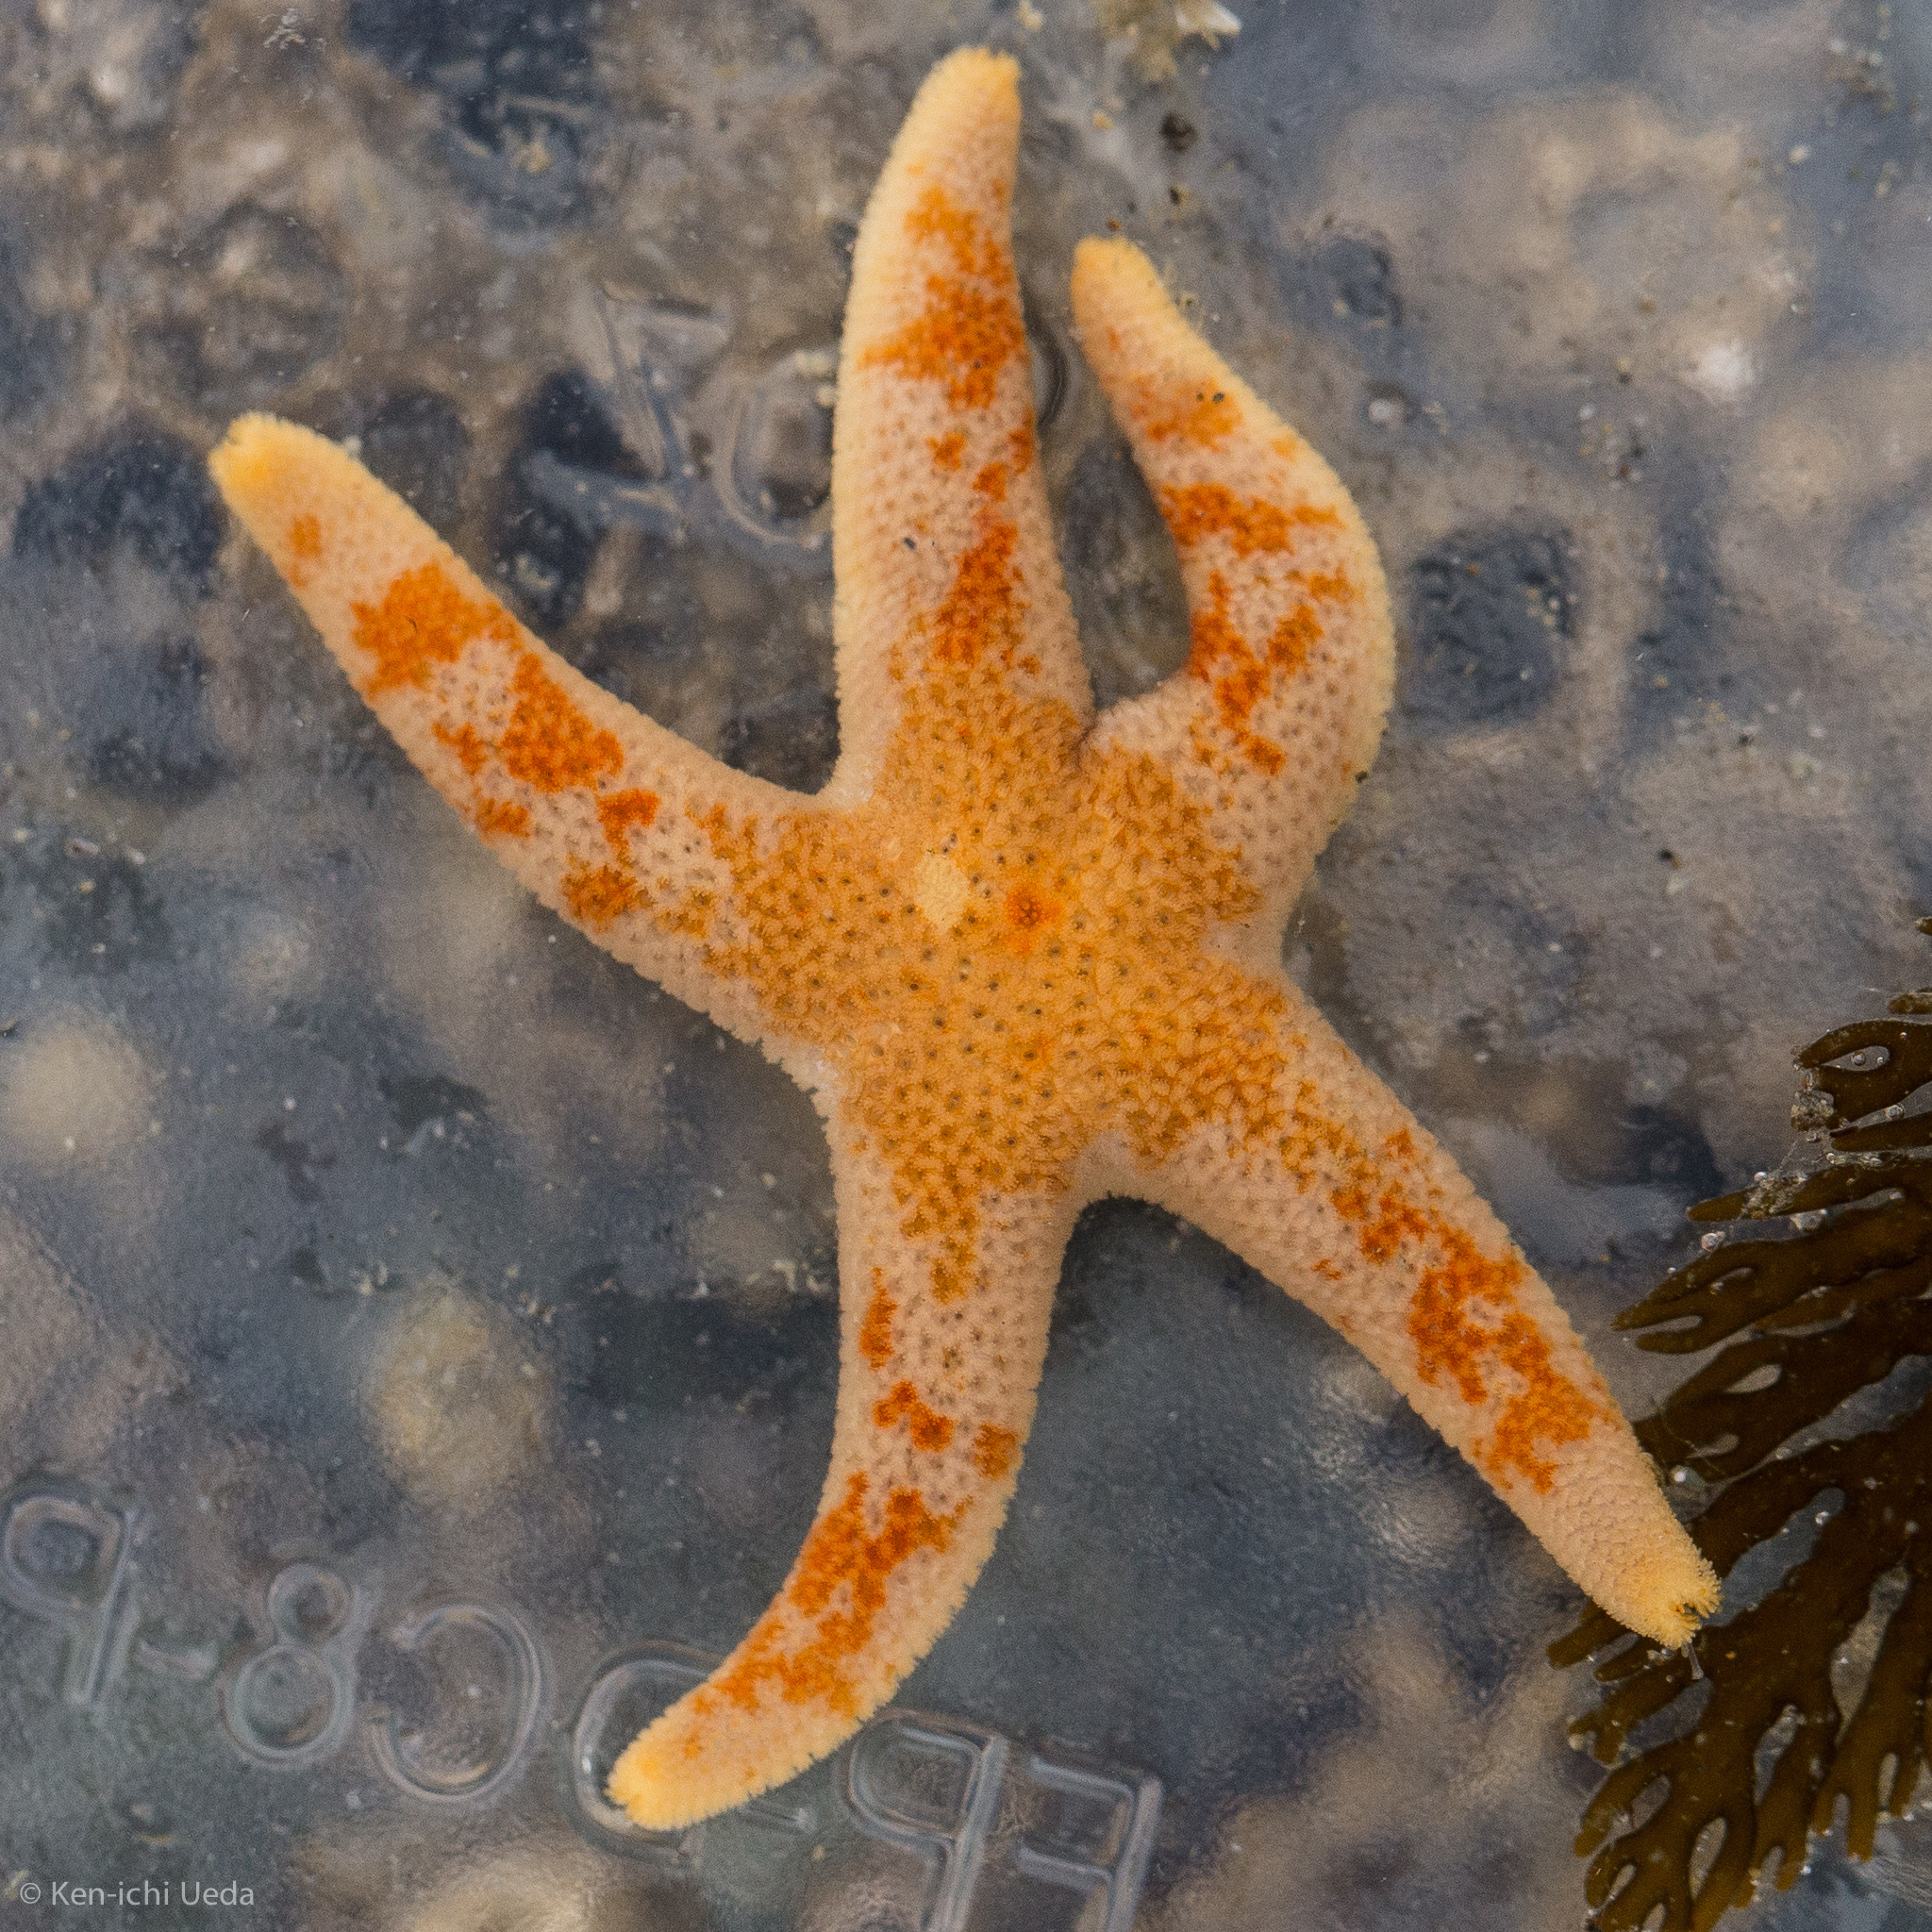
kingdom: Animalia
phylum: Echinodermata
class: Asteroidea
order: Spinulosida
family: Echinasteridae
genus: Henricia
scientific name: Henricia pumila
